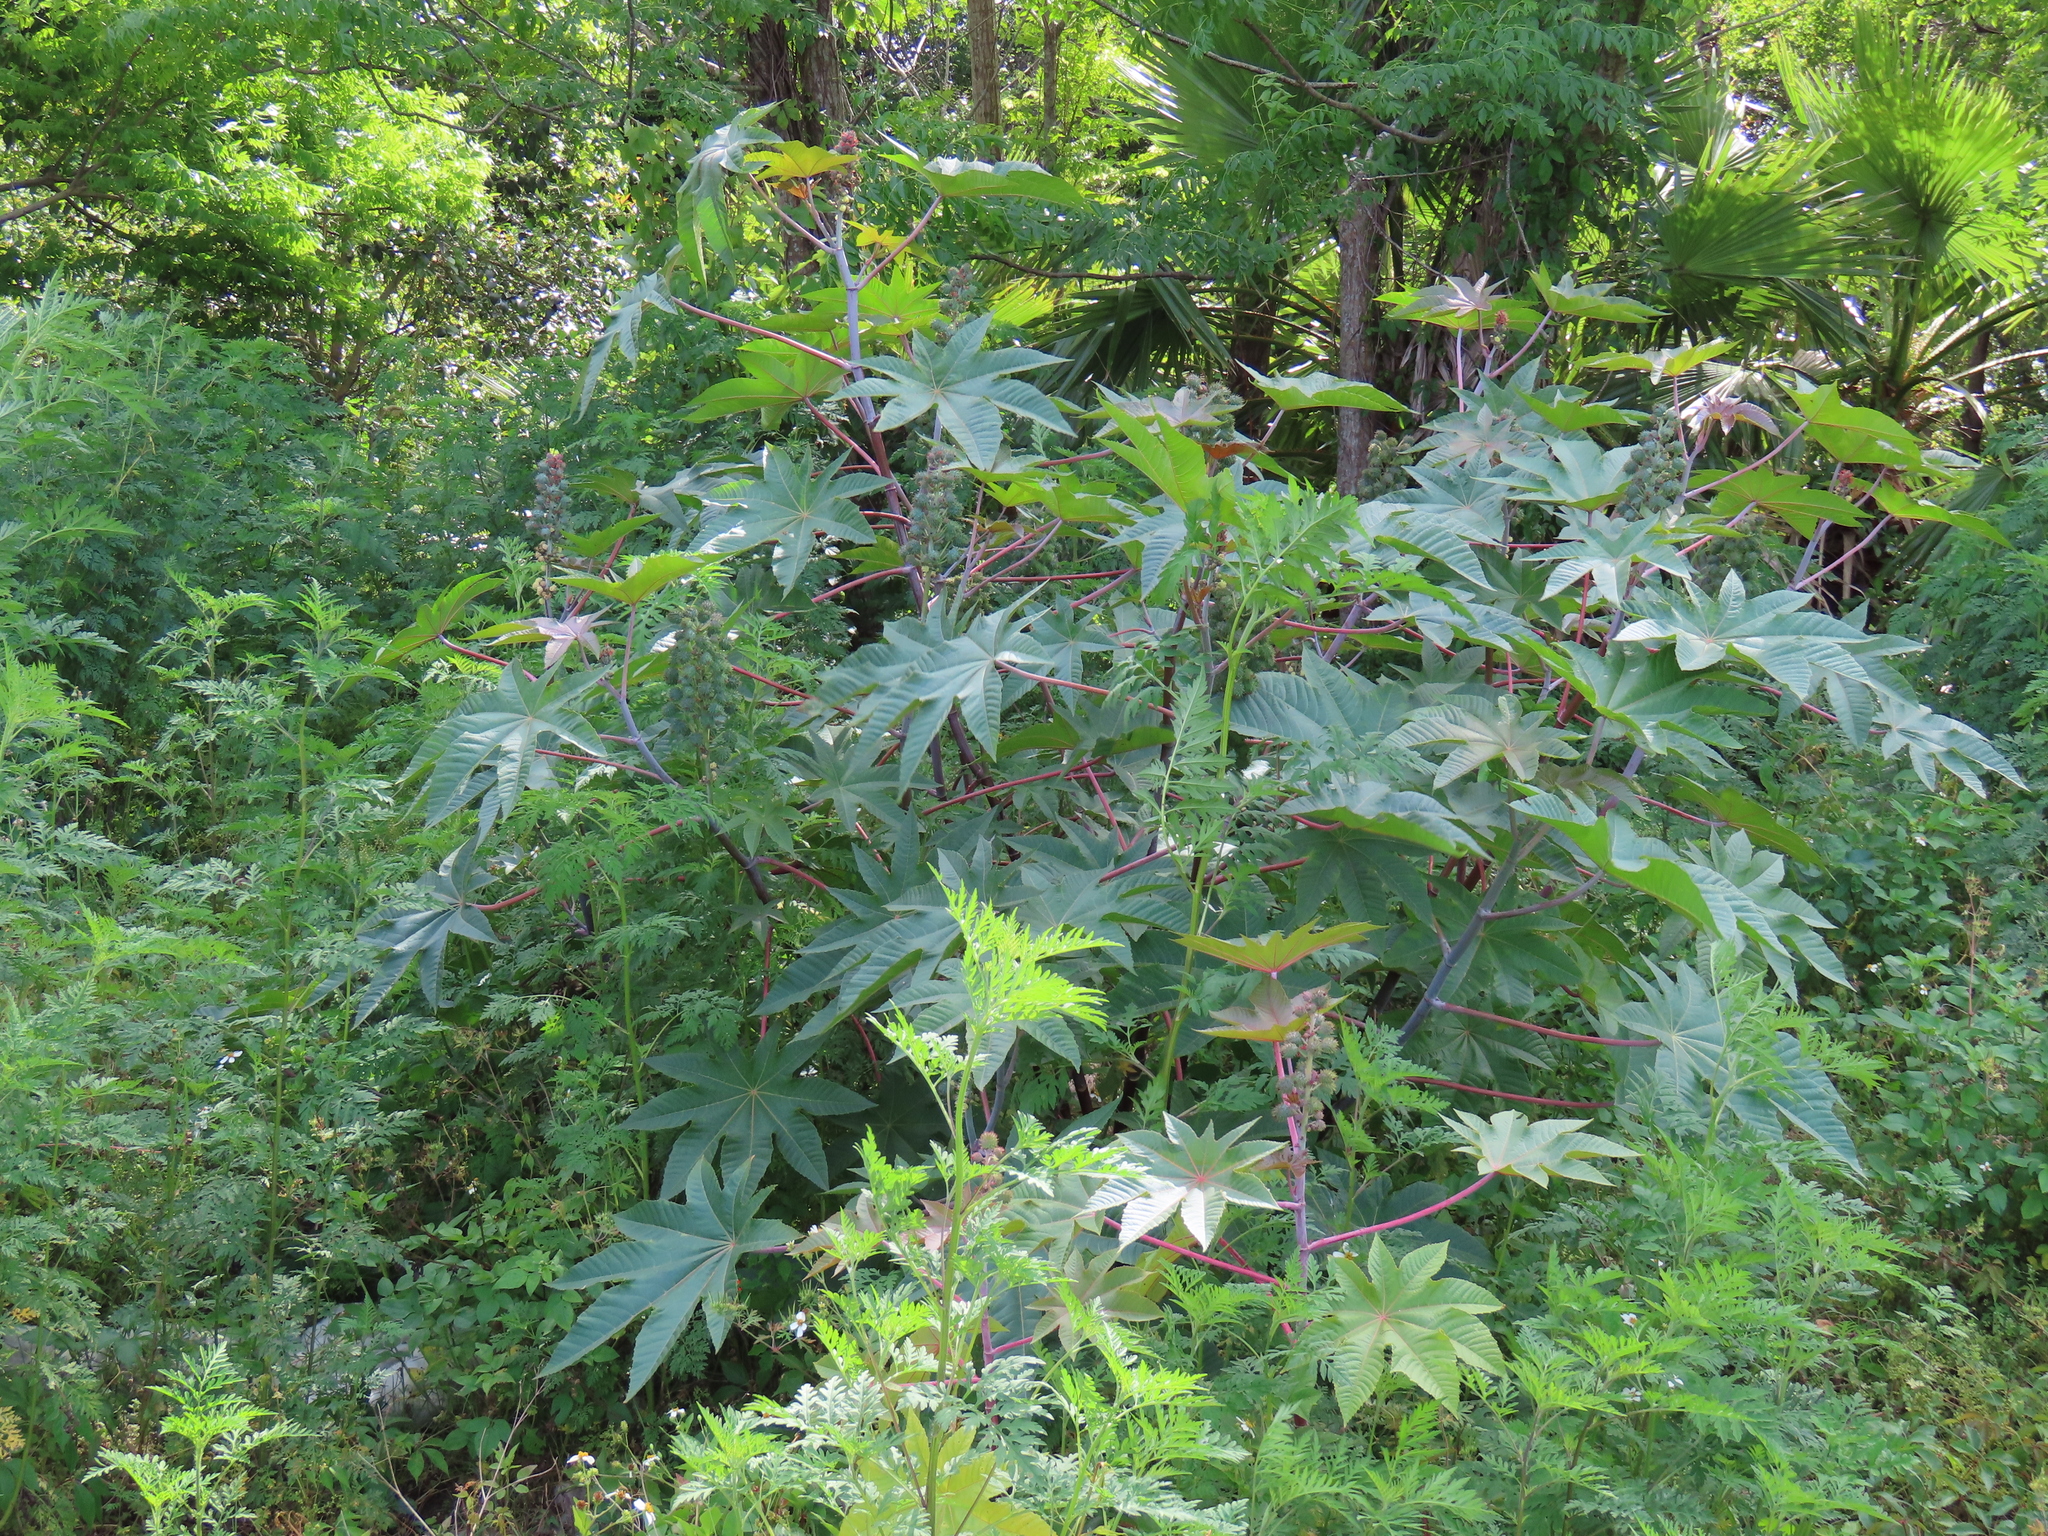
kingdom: Plantae
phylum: Tracheophyta
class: Magnoliopsida
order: Malpighiales
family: Euphorbiaceae
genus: Ricinus
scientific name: Ricinus communis
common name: Castor-oil-plant
